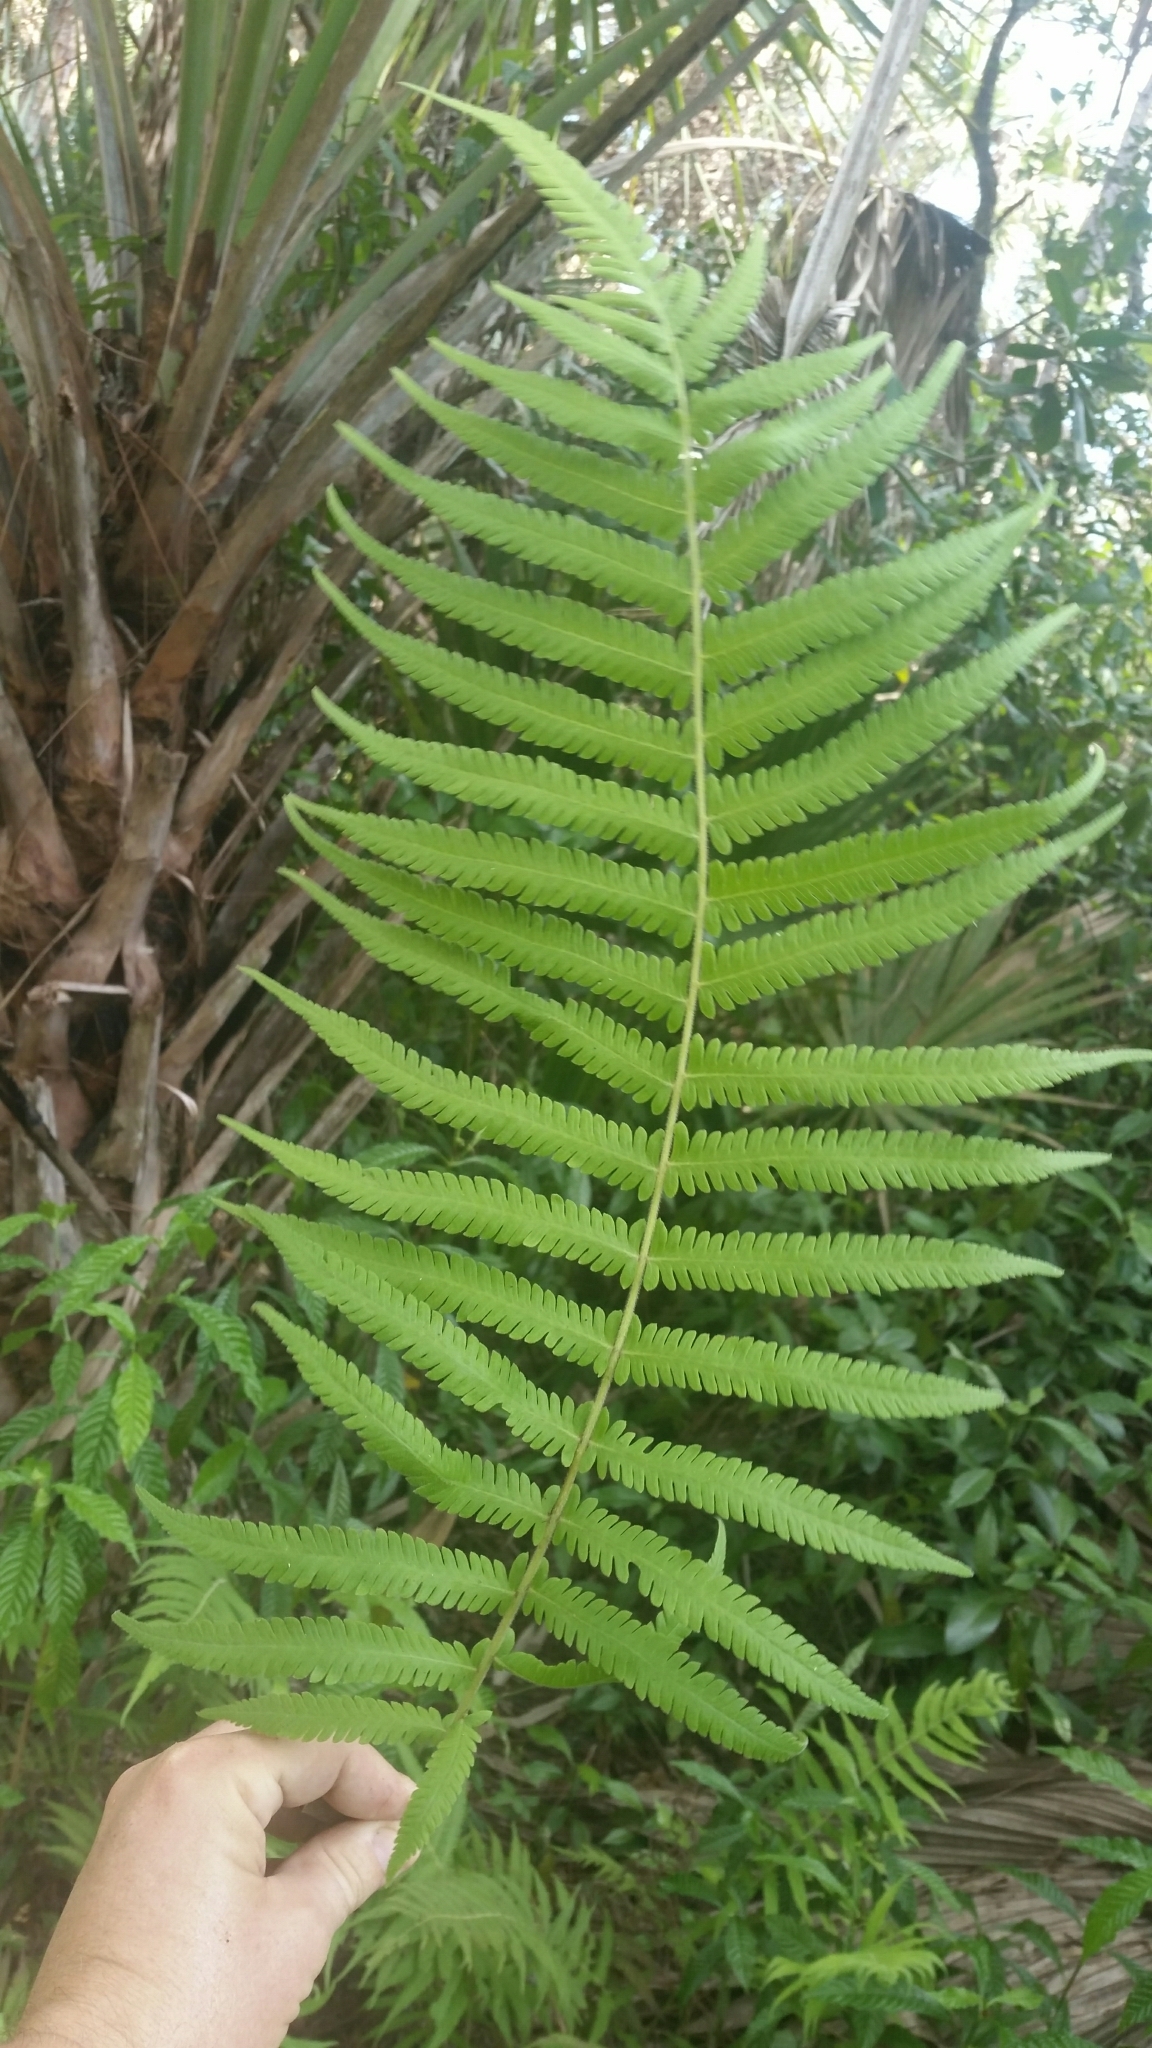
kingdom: Plantae
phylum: Tracheophyta
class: Polypodiopsida
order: Polypodiales
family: Thelypteridaceae
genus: Pelazoneuron
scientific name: Pelazoneuron kunthii
